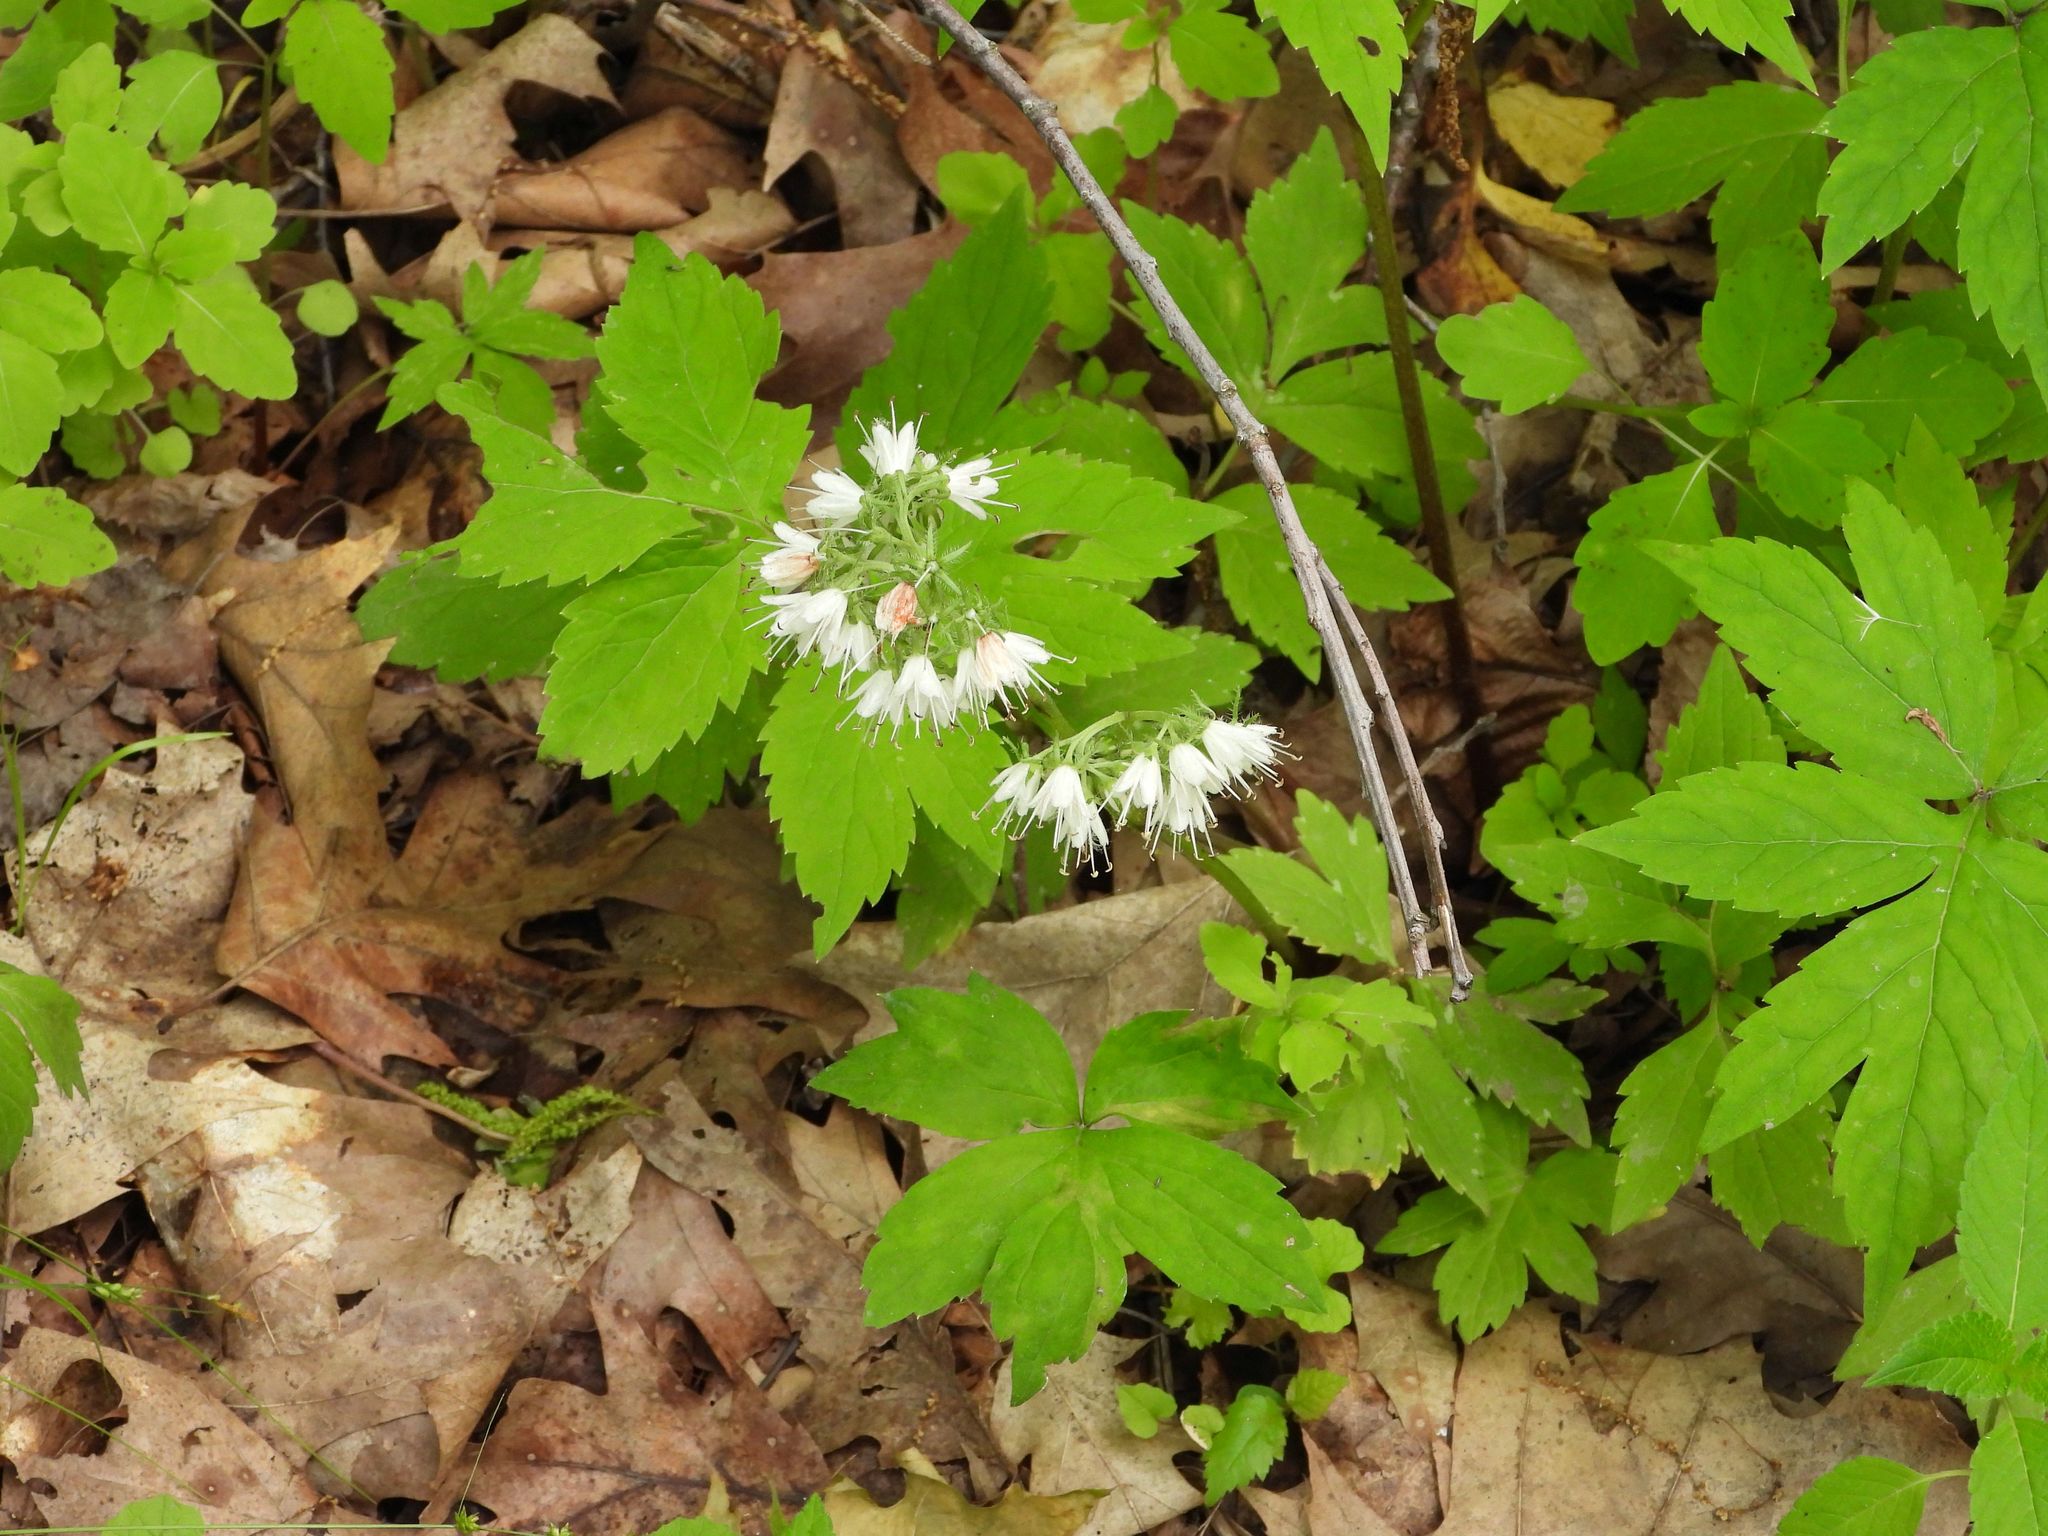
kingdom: Plantae
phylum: Tracheophyta
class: Magnoliopsida
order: Boraginales
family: Hydrophyllaceae
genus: Hydrophyllum
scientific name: Hydrophyllum virginianum
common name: Virginia waterleaf
